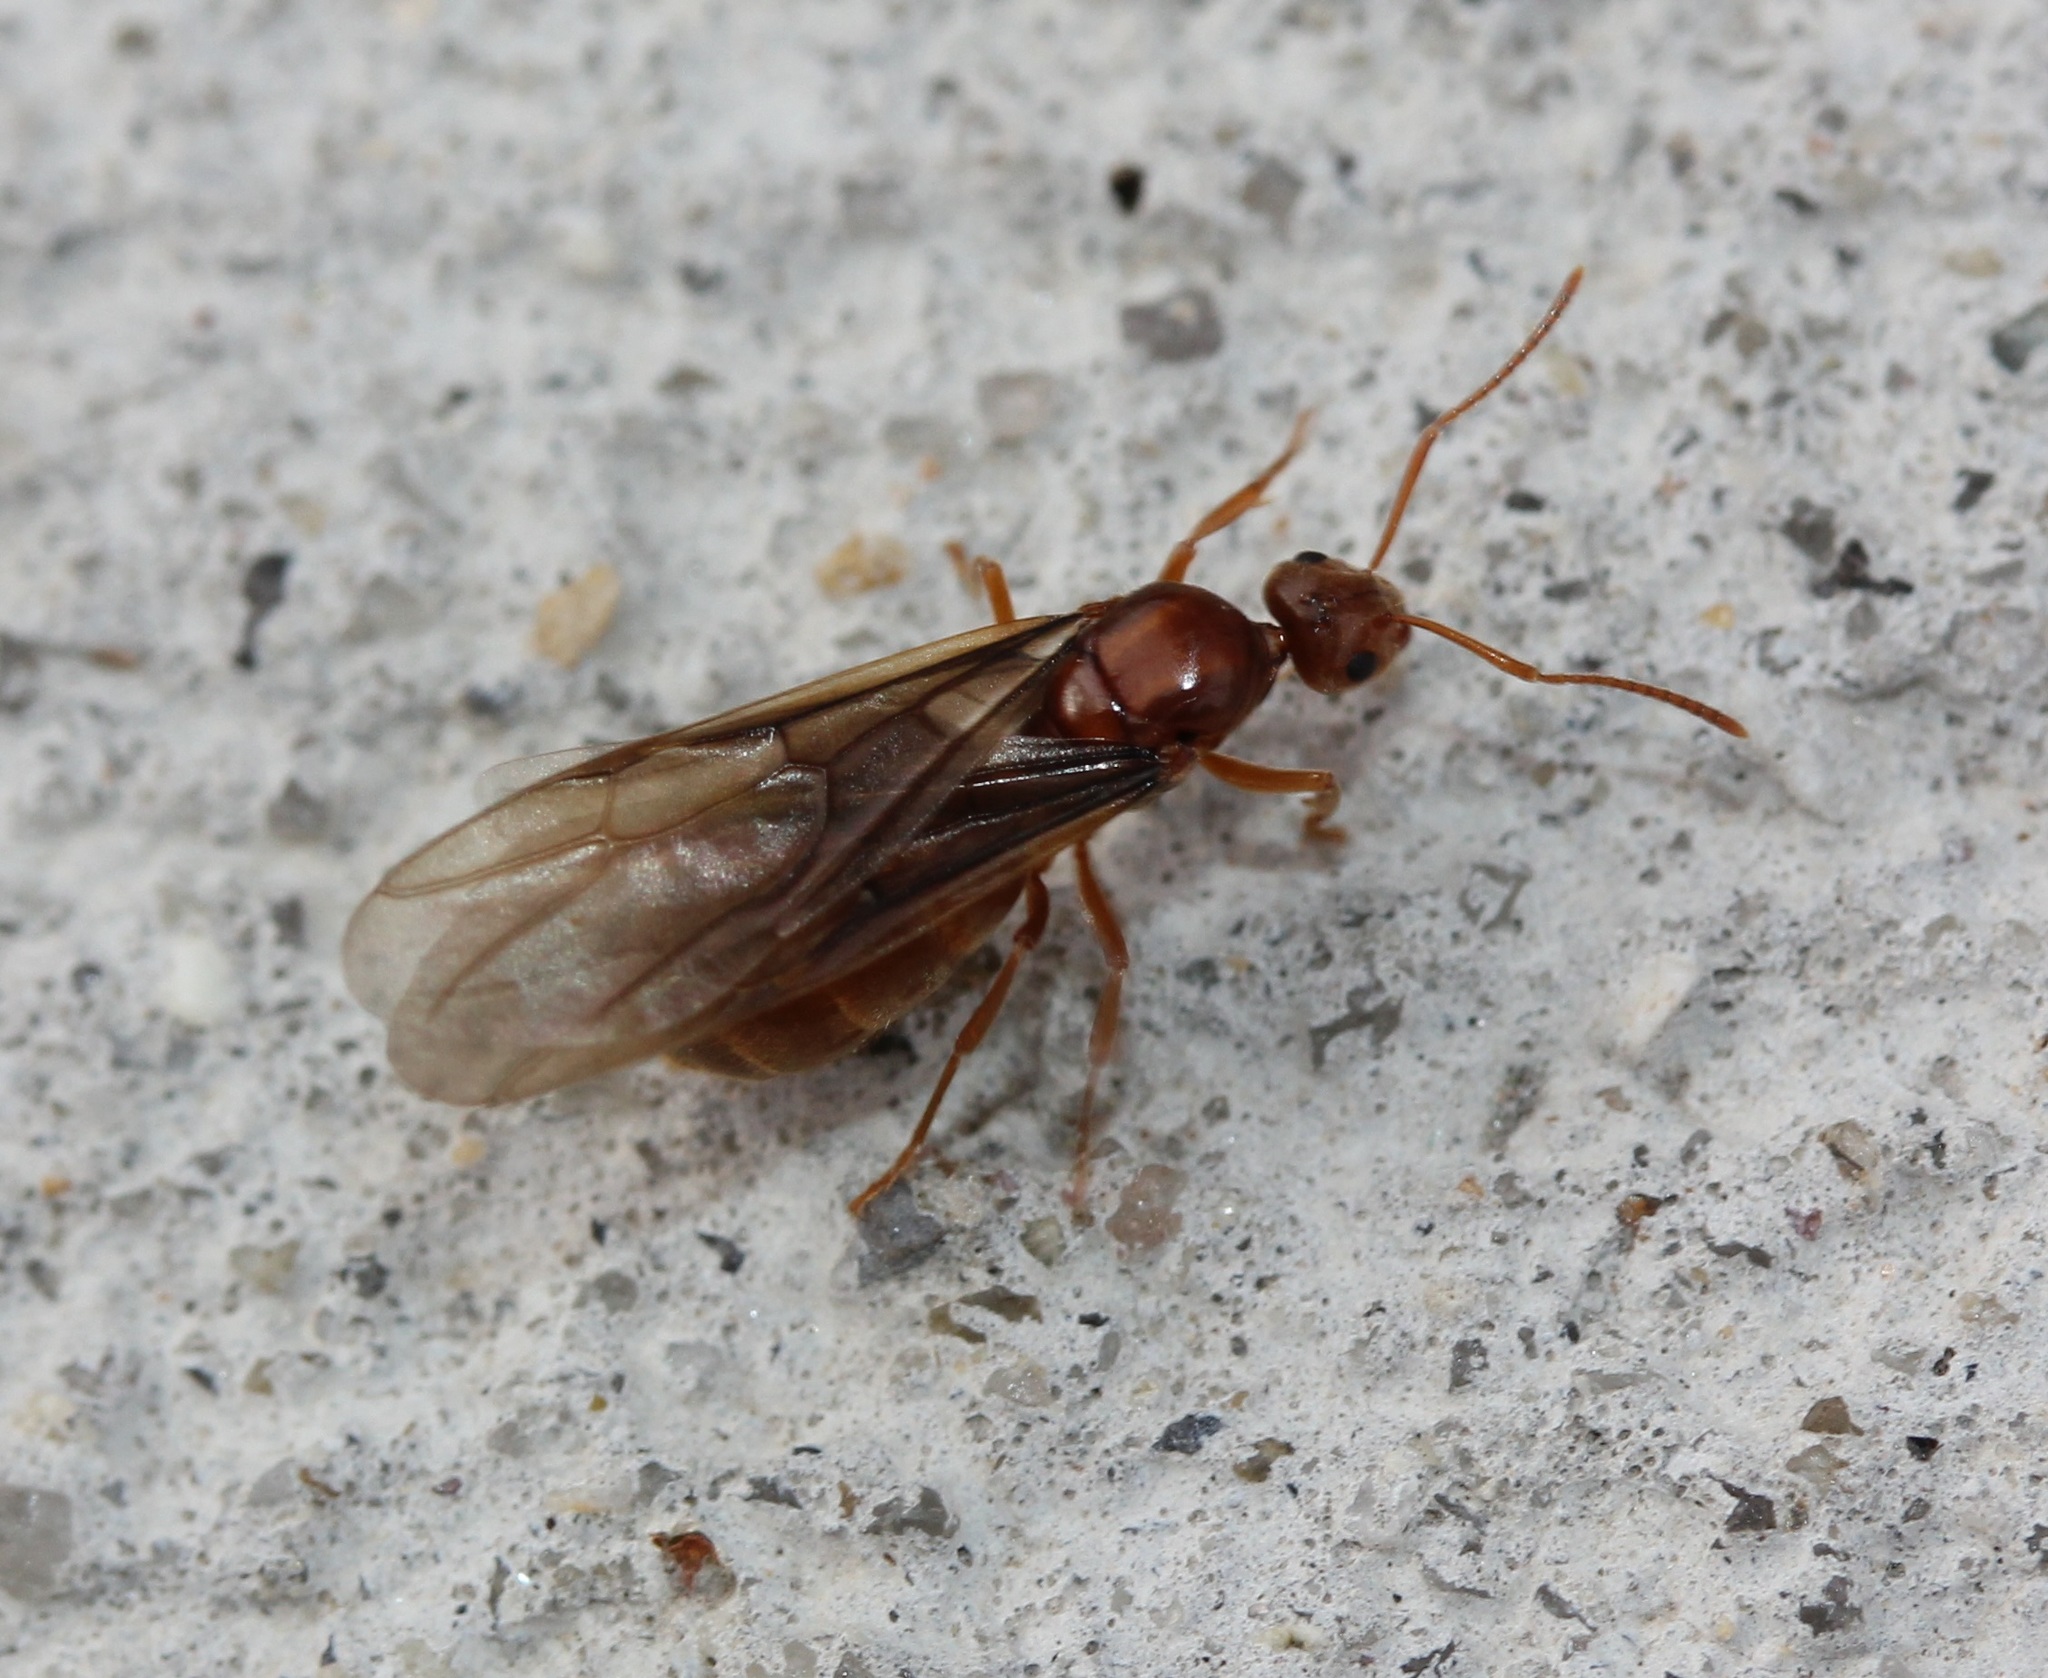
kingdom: Animalia
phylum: Arthropoda
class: Insecta
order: Hymenoptera
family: Formicidae
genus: Prenolepis
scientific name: Prenolepis imparis
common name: Small honey ant
